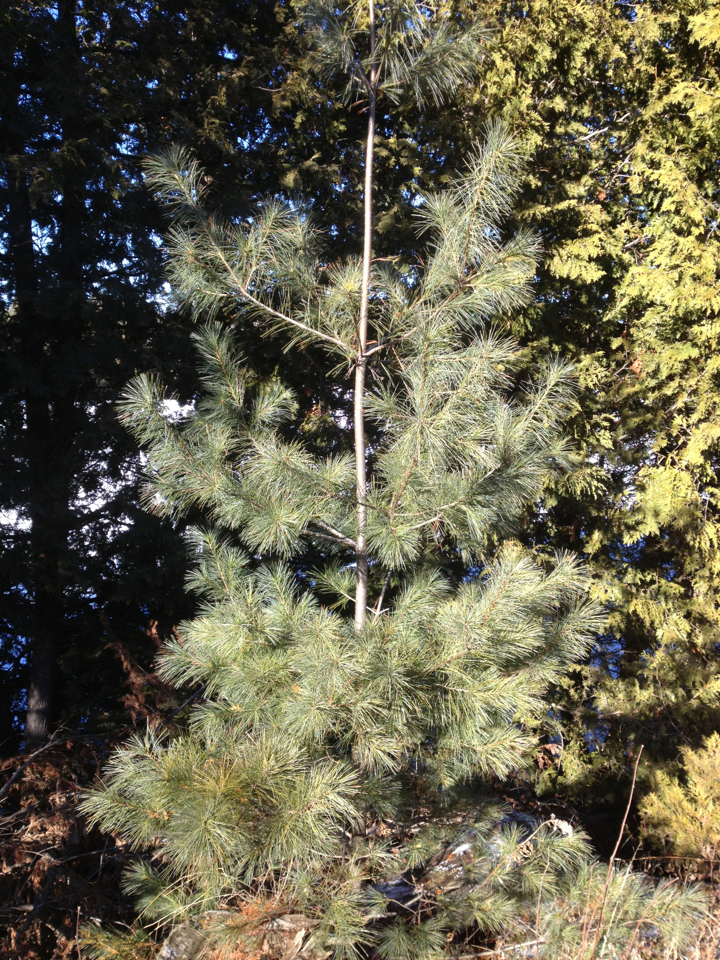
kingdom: Plantae
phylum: Tracheophyta
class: Pinopsida
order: Pinales
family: Pinaceae
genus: Pinus
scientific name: Pinus strobus
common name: Weymouth pine
